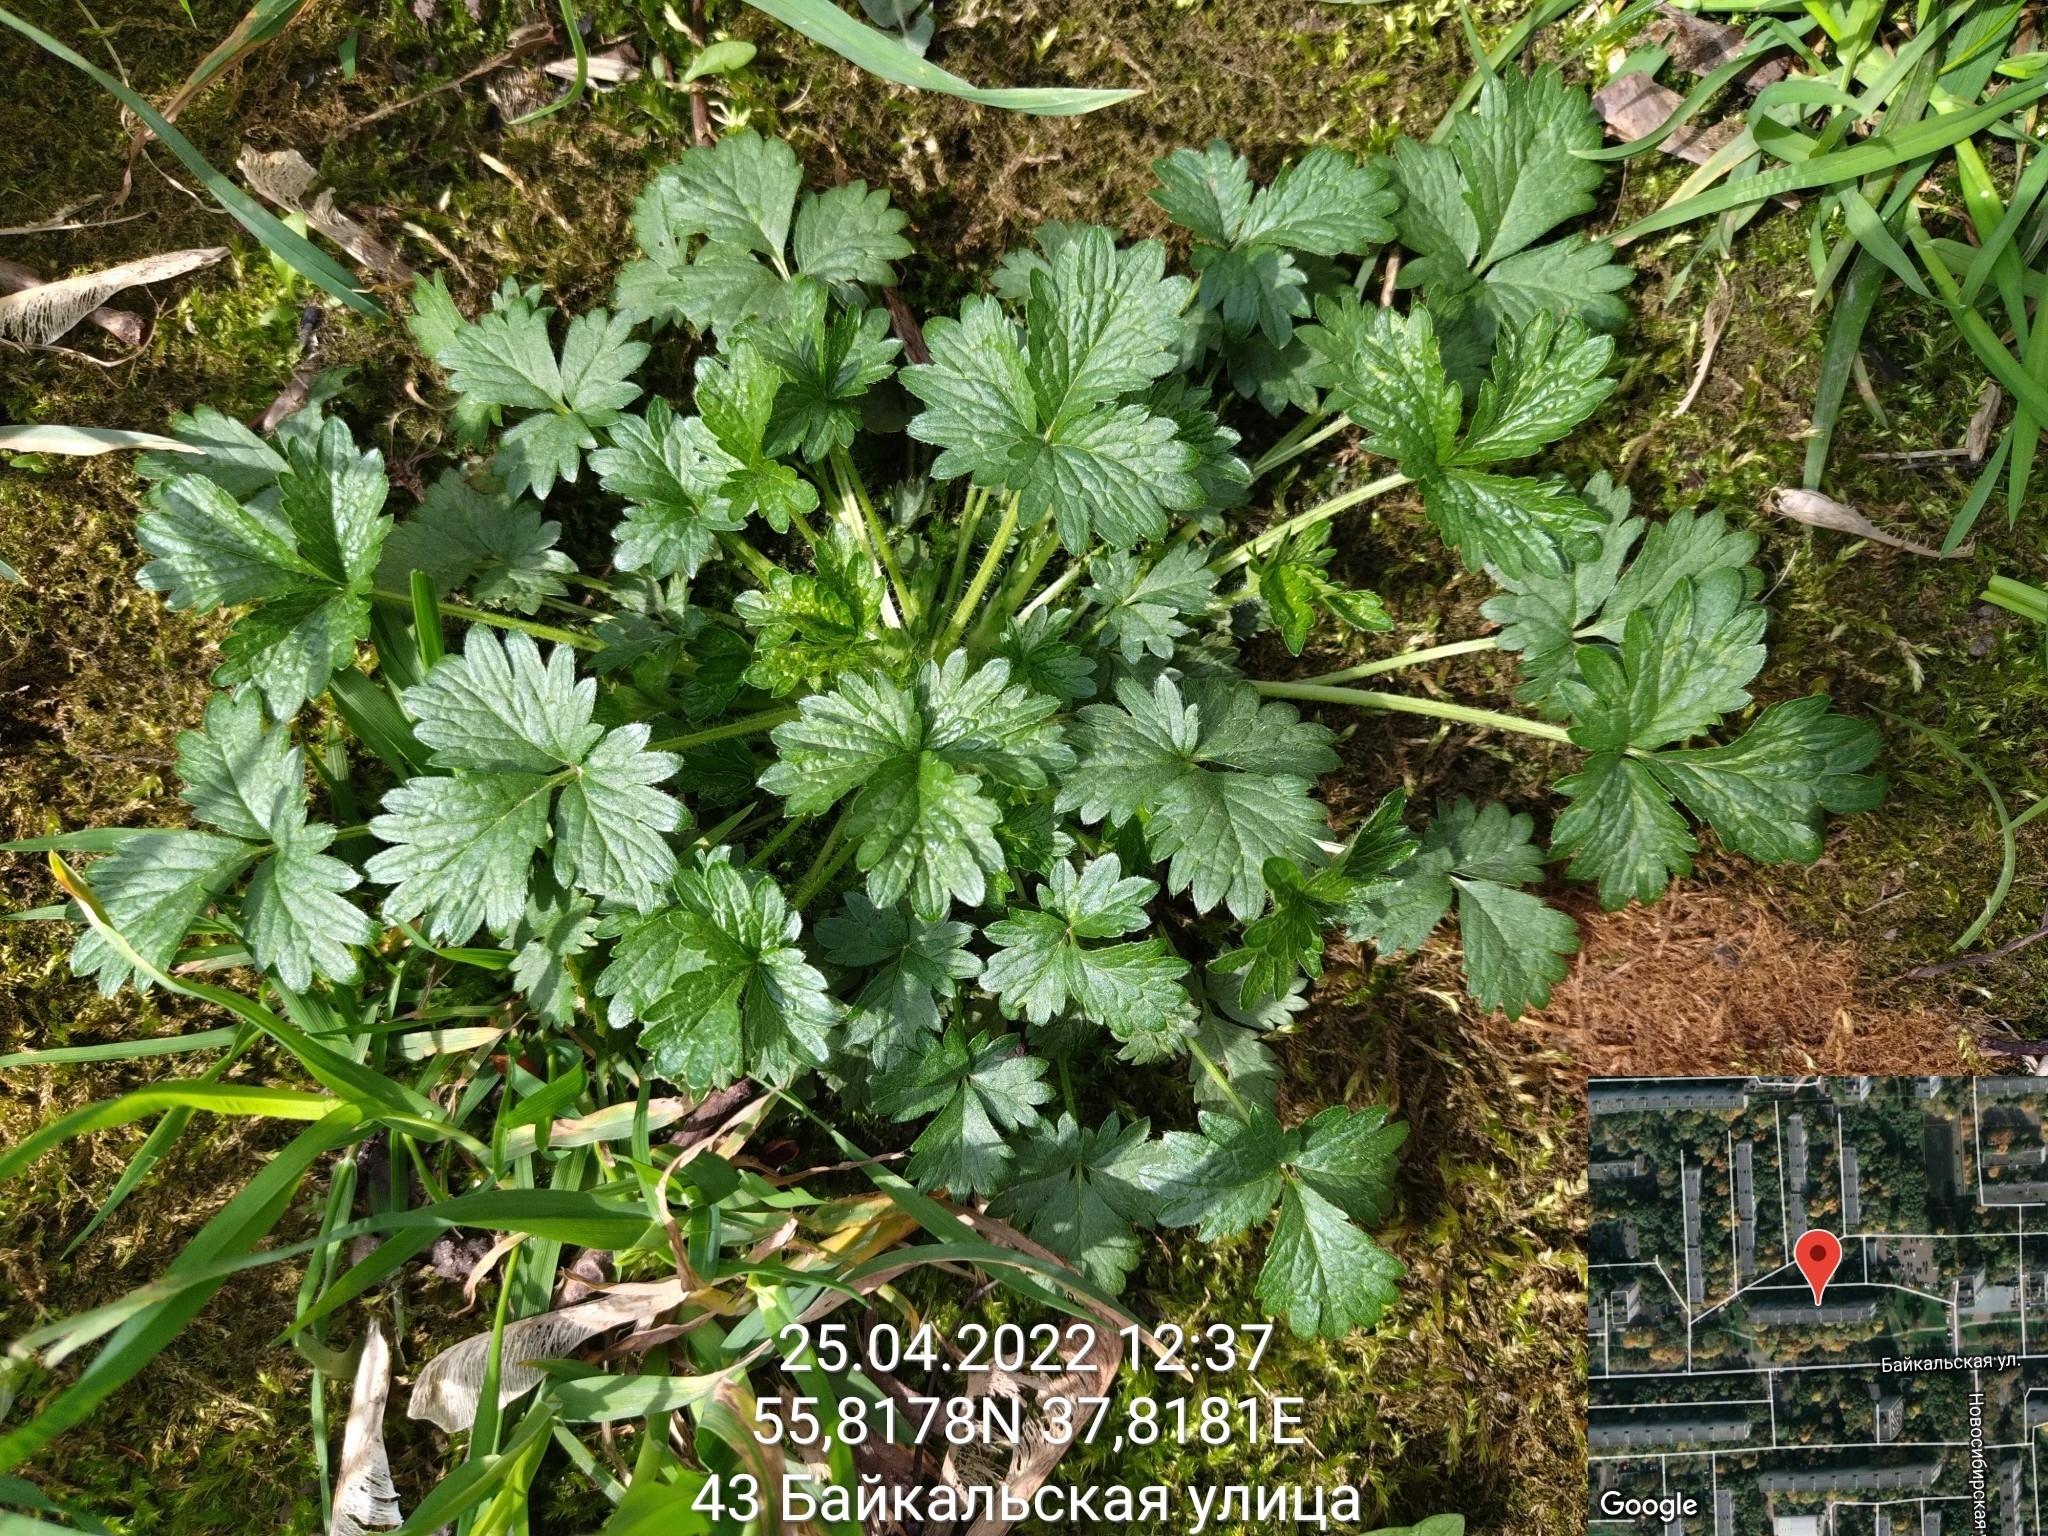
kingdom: Plantae
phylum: Tracheophyta
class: Magnoliopsida
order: Rosales
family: Rosaceae
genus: Potentilla
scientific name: Potentilla norvegica
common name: Ternate-leaved cinquefoil
